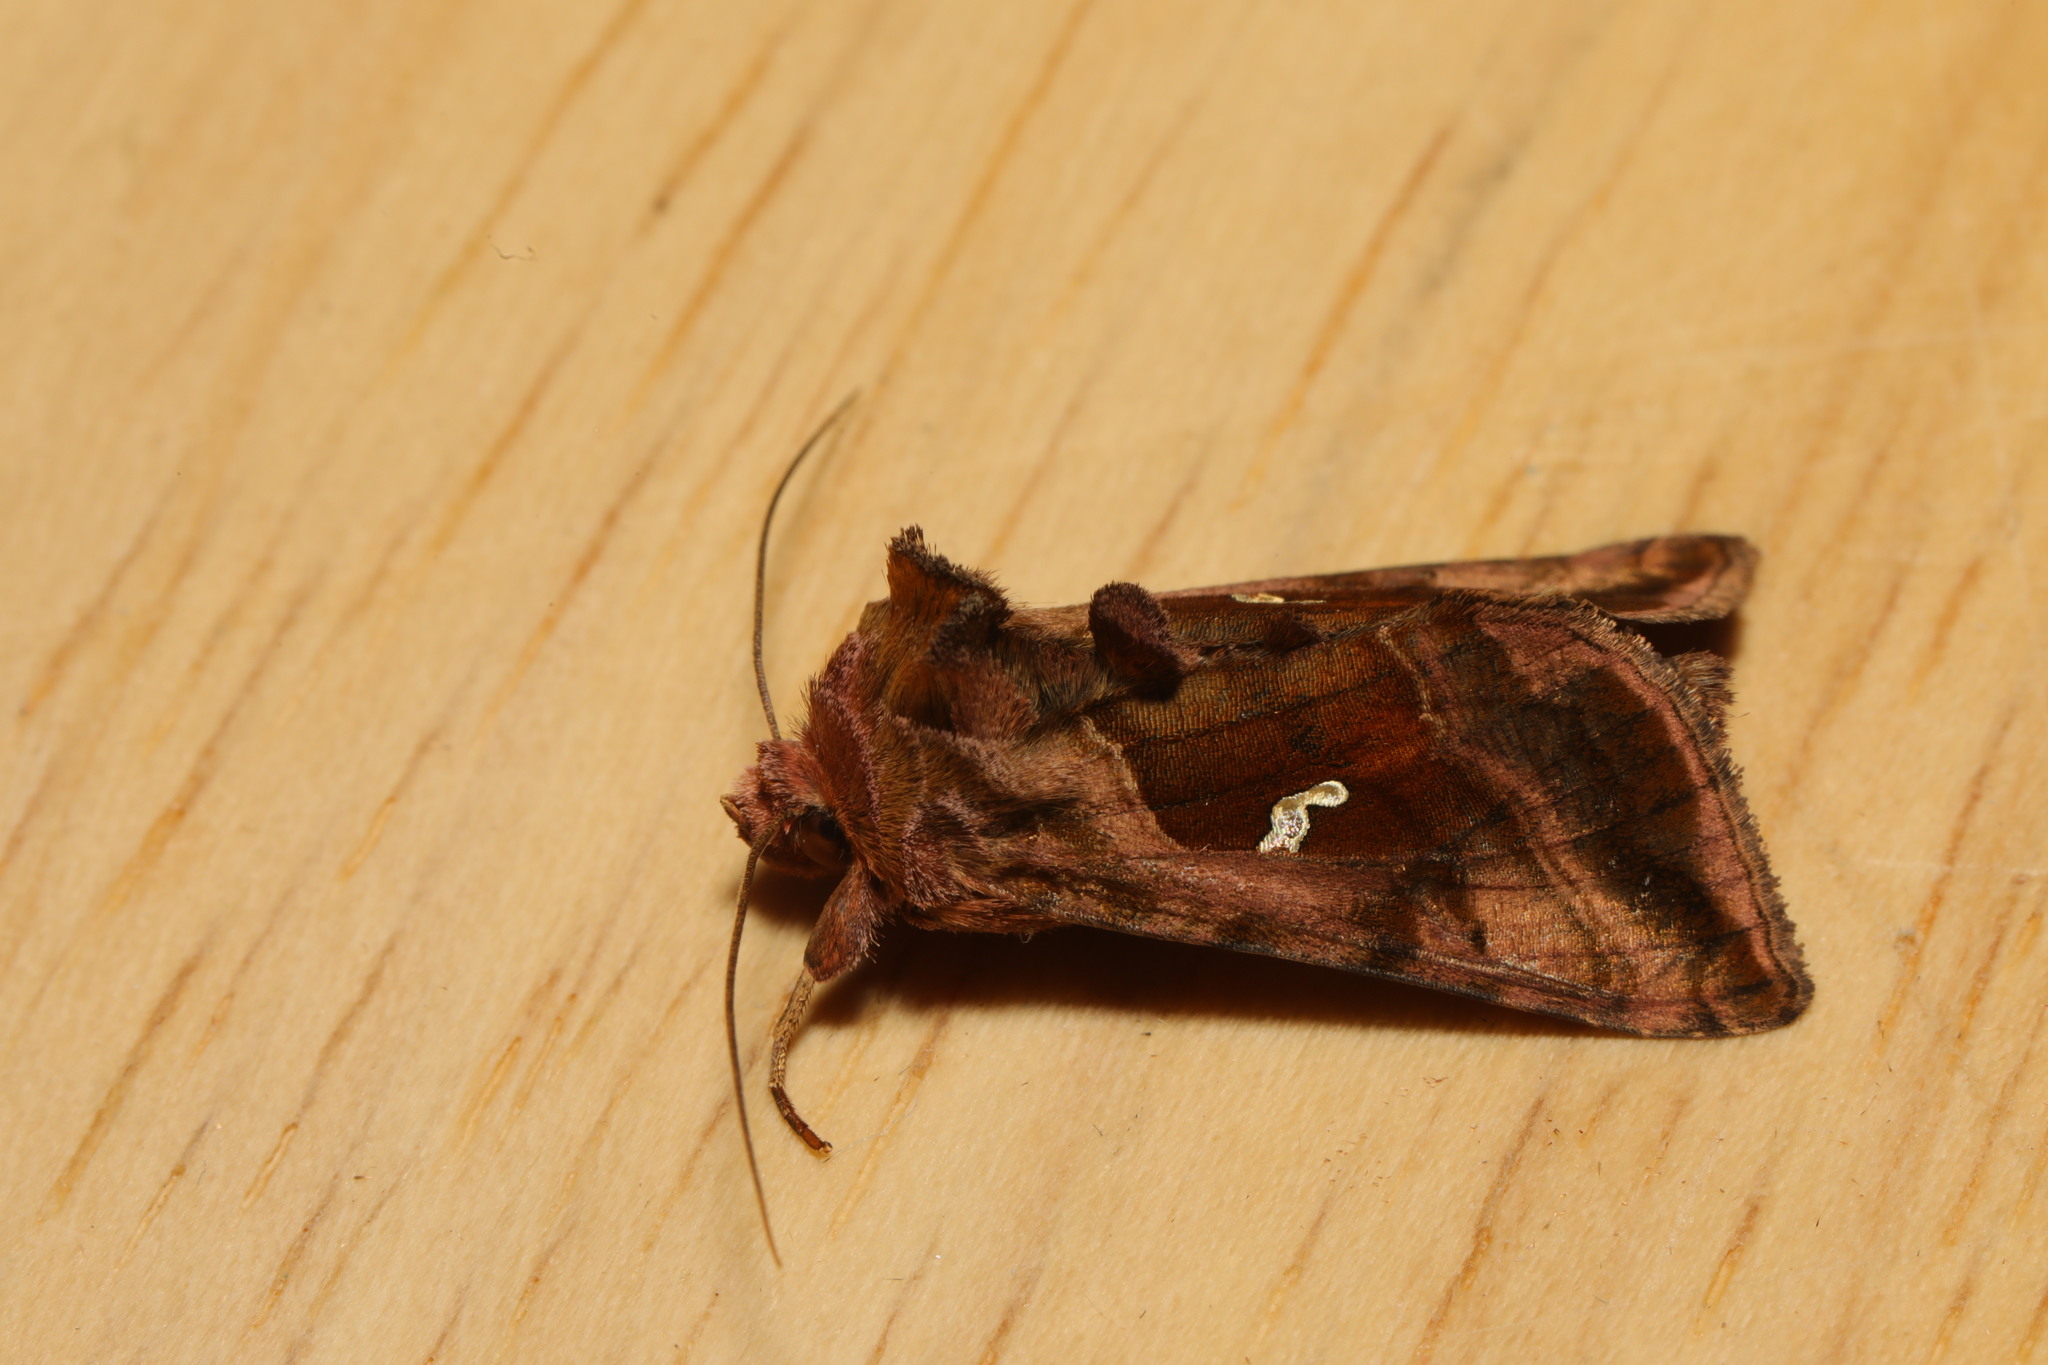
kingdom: Animalia
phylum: Arthropoda
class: Insecta
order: Lepidoptera
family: Noctuidae
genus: Autographa
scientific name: Autographa jota
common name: Plain golden y
